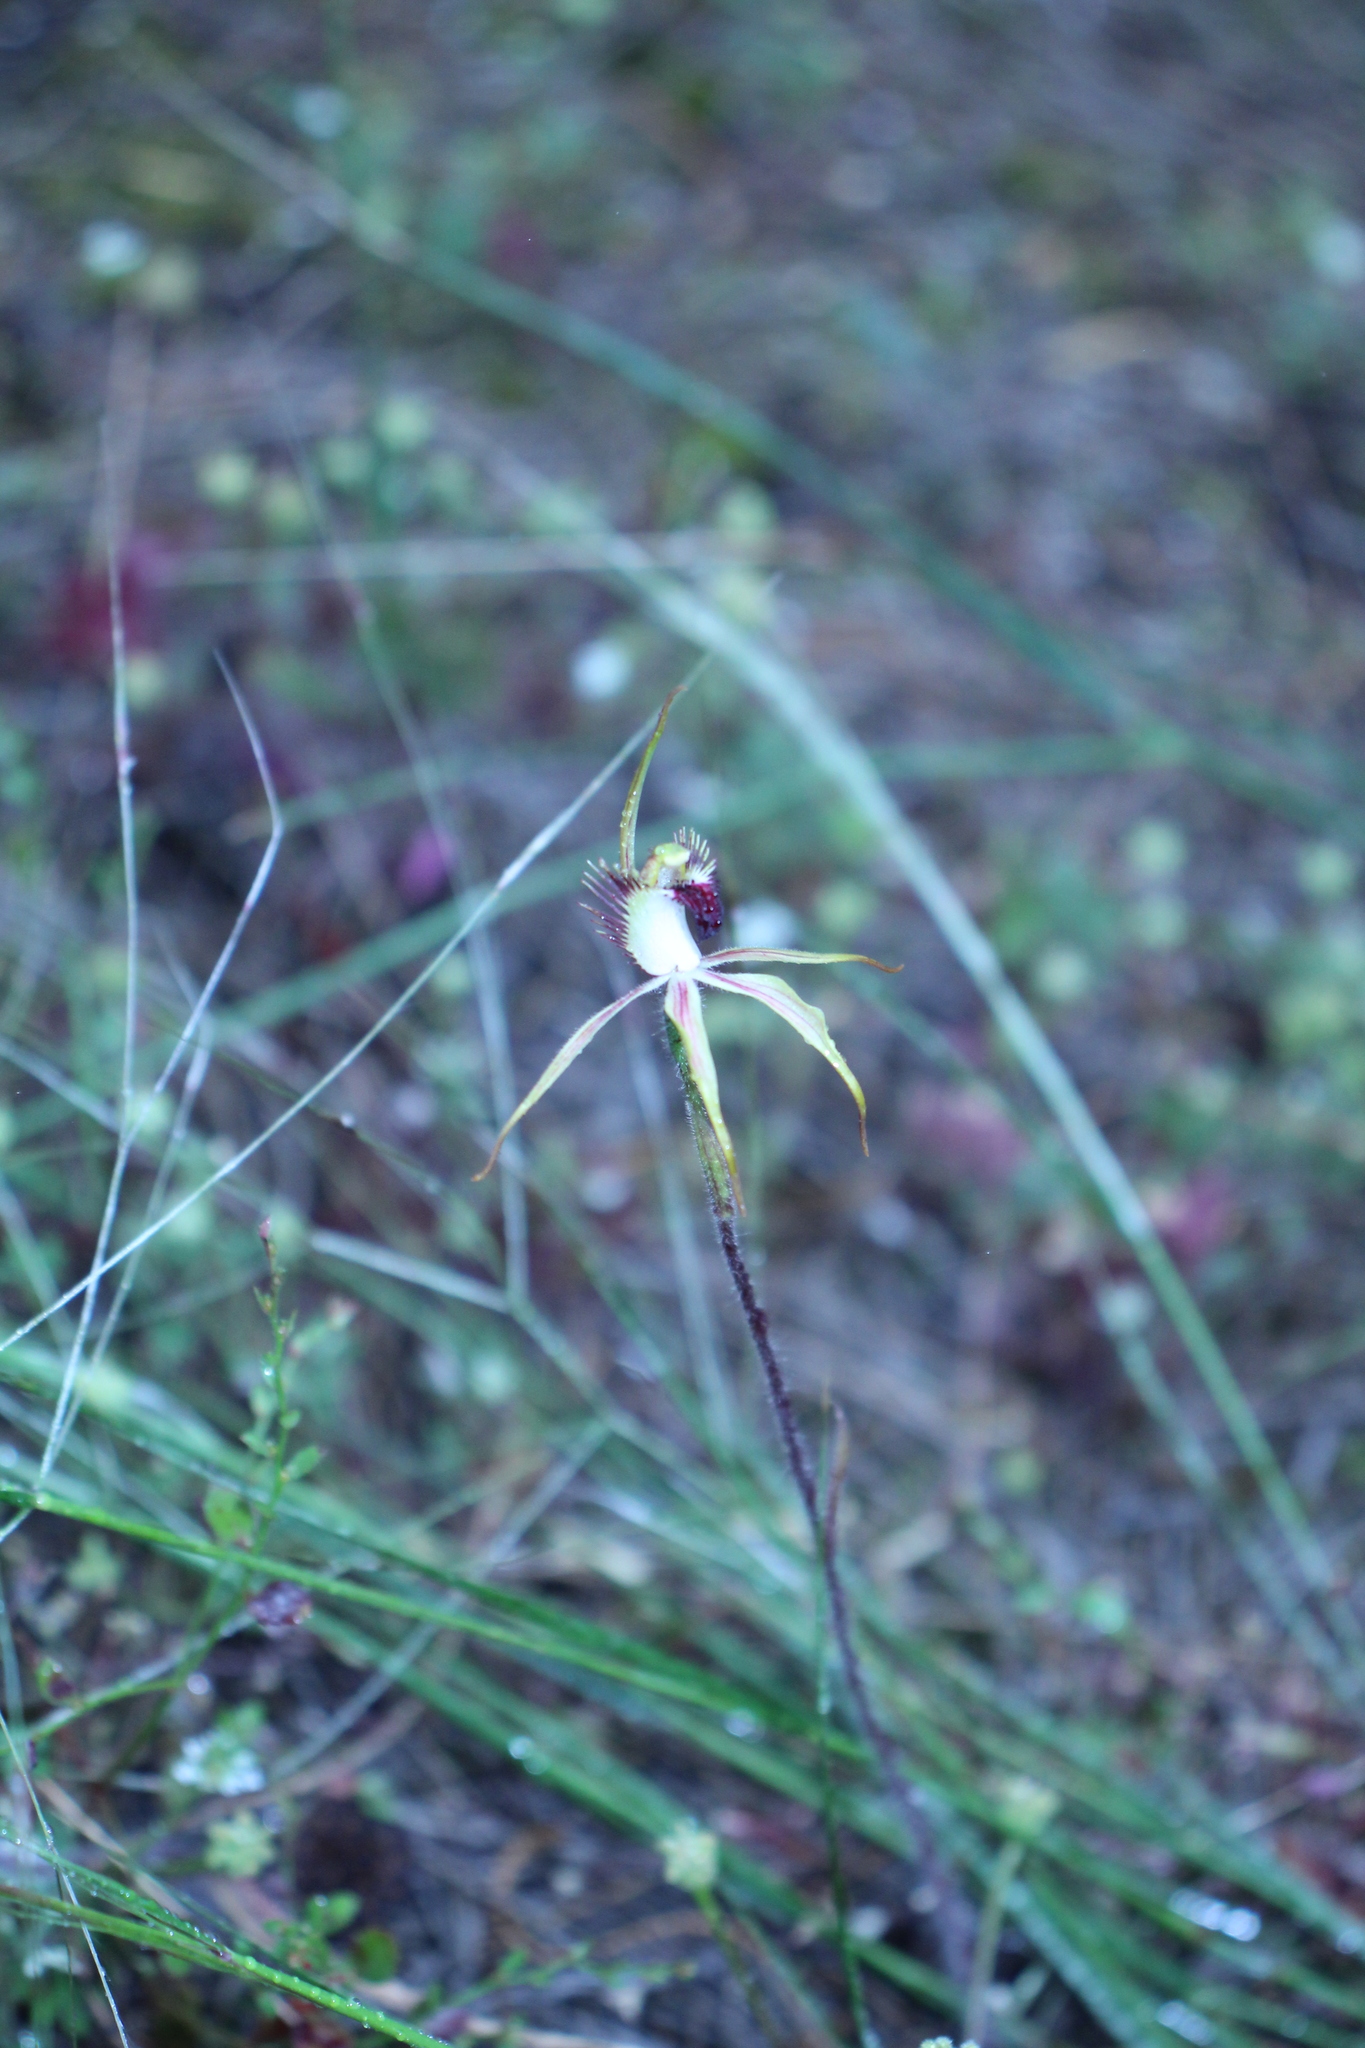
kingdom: Plantae
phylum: Tracheophyta
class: Liliopsida
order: Asparagales
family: Orchidaceae
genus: Caladenia
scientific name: Caladenia graniticola
